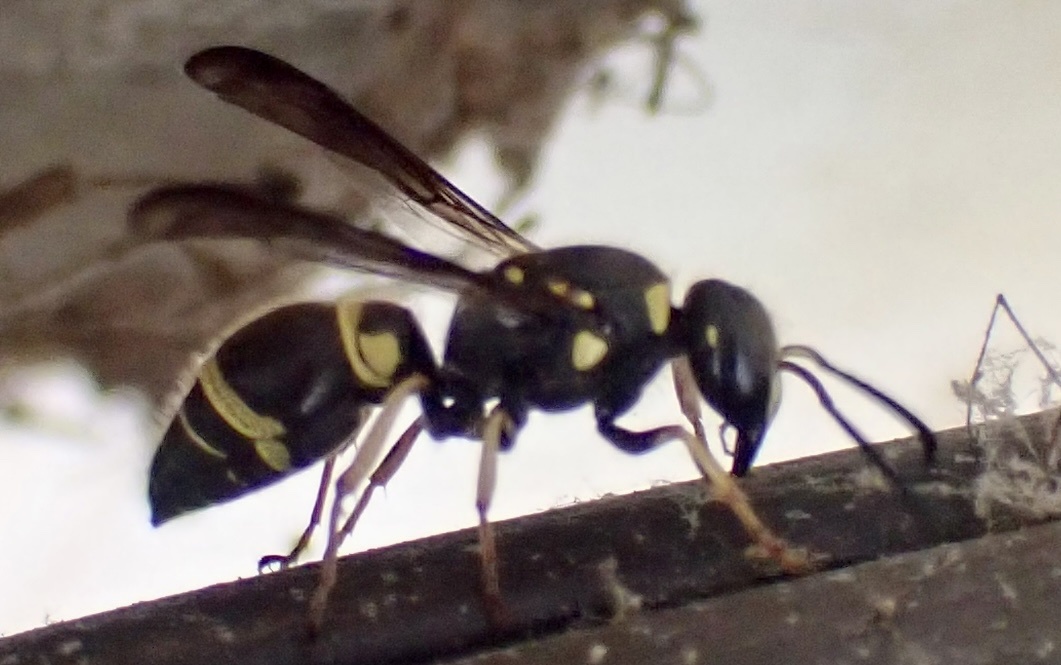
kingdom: Animalia
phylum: Arthropoda
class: Insecta
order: Hymenoptera
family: Vespidae
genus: Ancistrocerus
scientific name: Ancistrocerus campestris
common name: Smiling mason wasp
